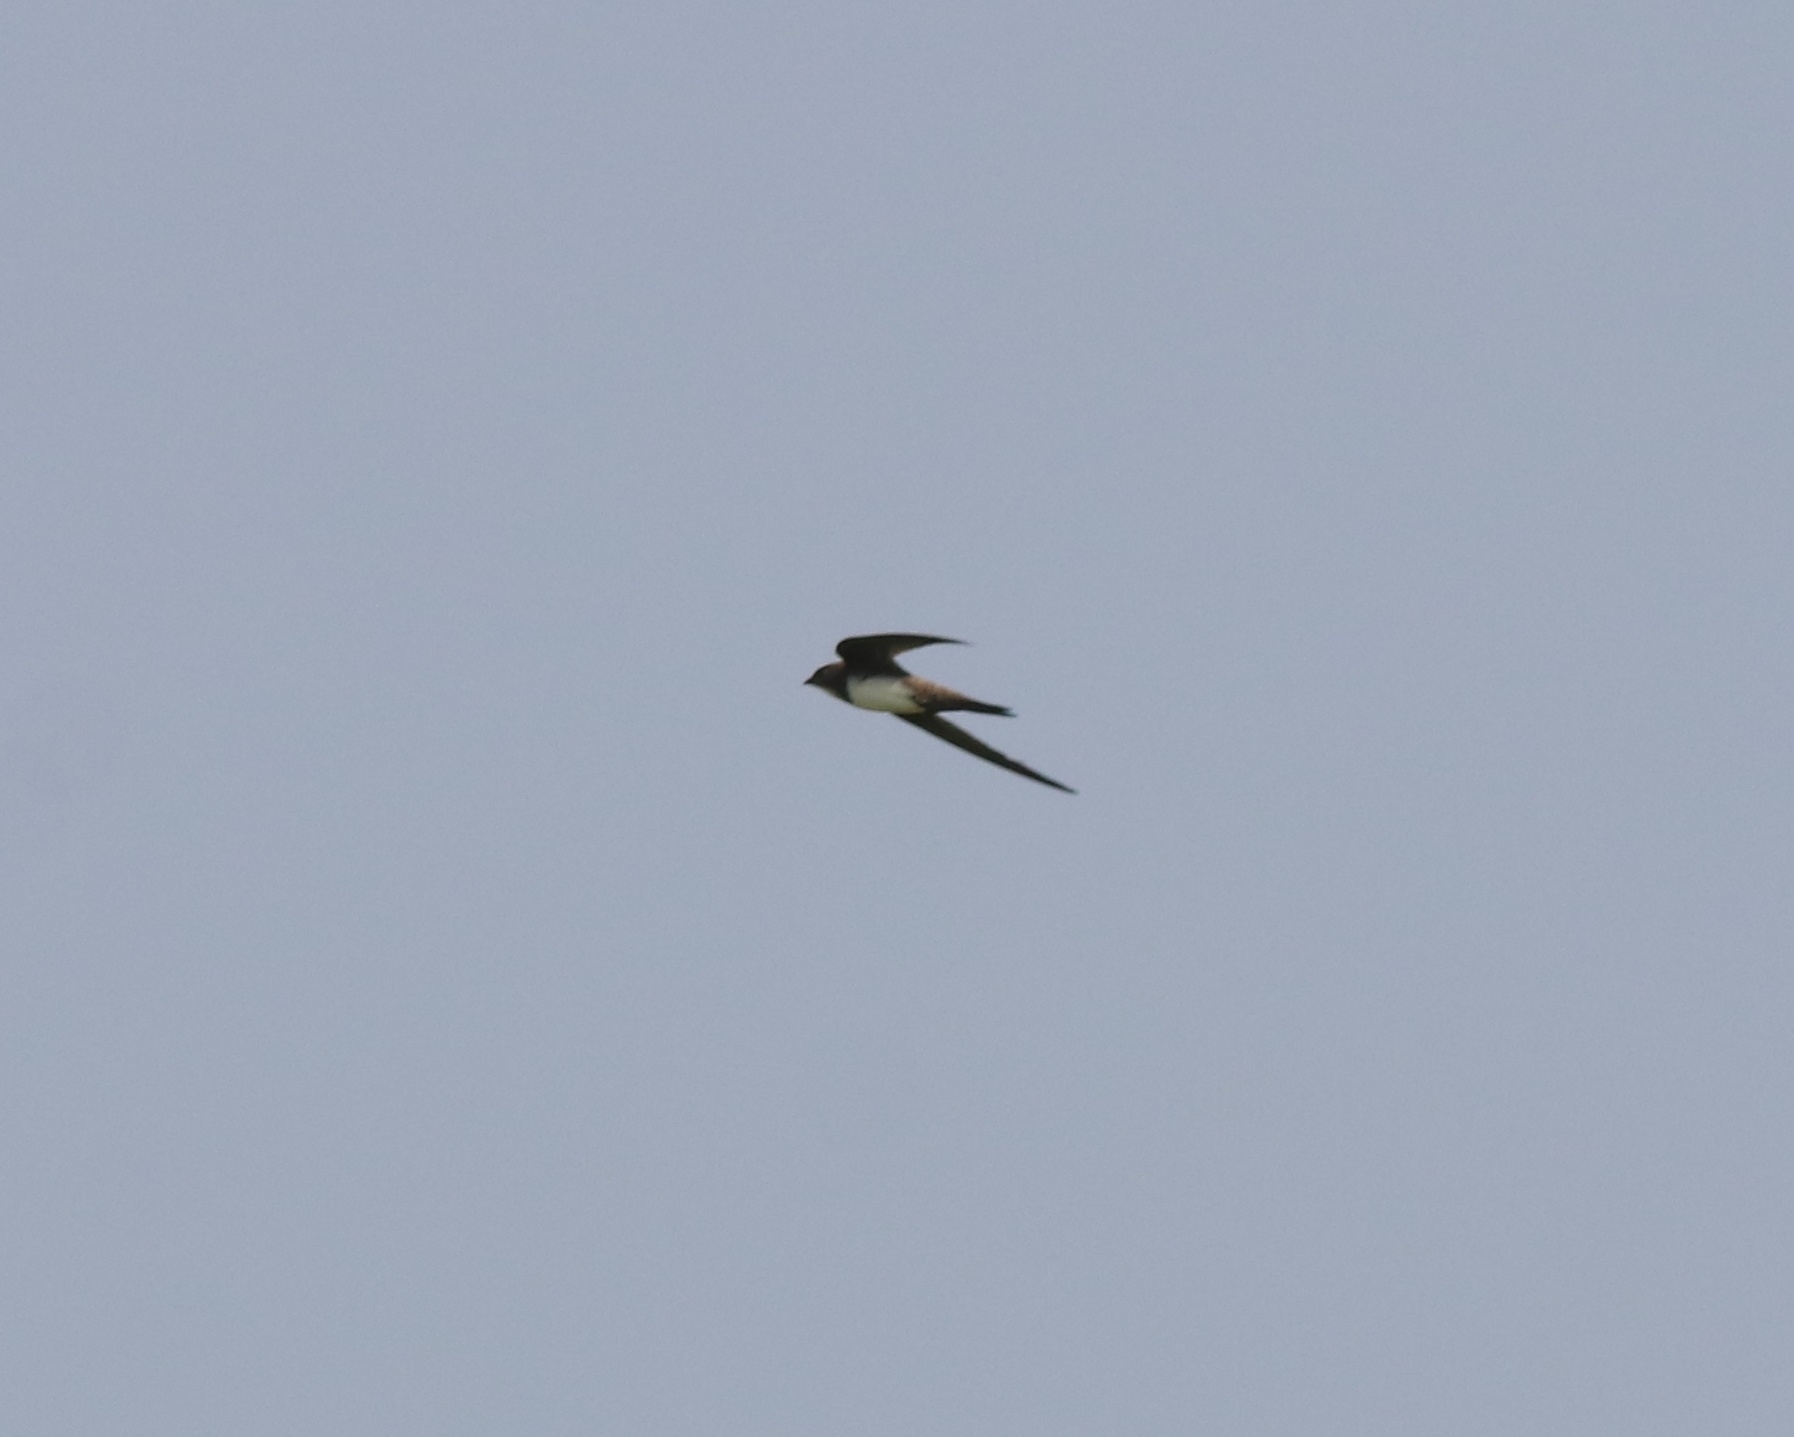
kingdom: Animalia
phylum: Chordata
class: Aves
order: Apodiformes
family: Apodidae
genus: Tachymarptis
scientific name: Tachymarptis melba
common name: Alpine swift
